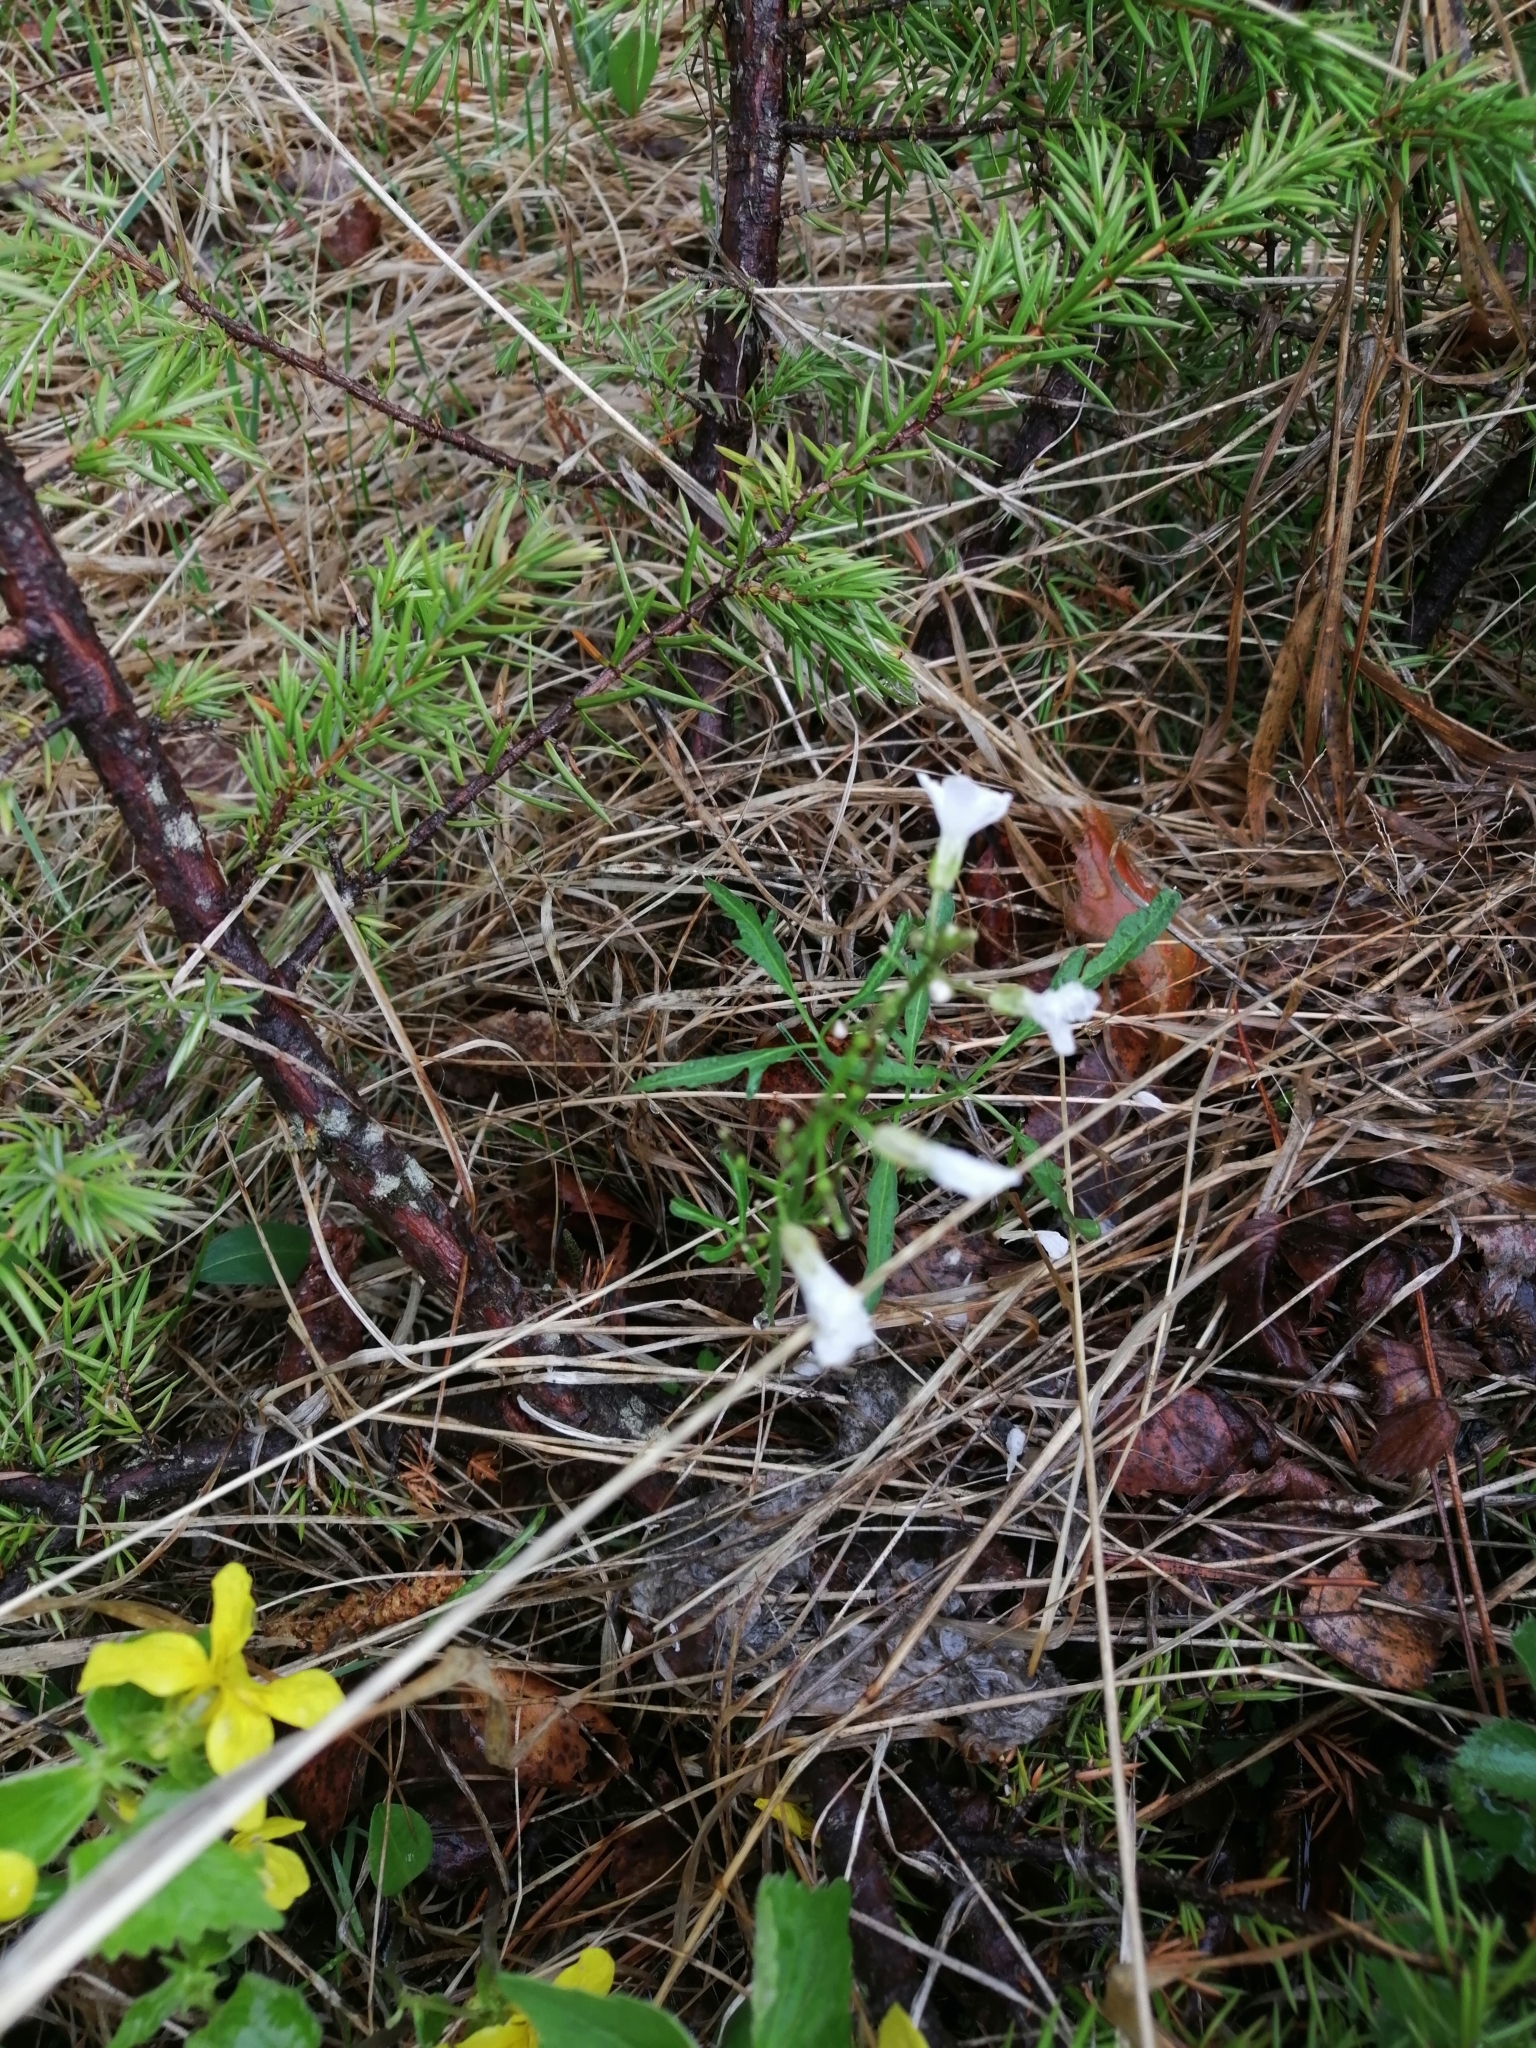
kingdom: Plantae
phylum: Tracheophyta
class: Magnoliopsida
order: Brassicales
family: Brassicaceae
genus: Cardamine
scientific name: Cardamine trifida
